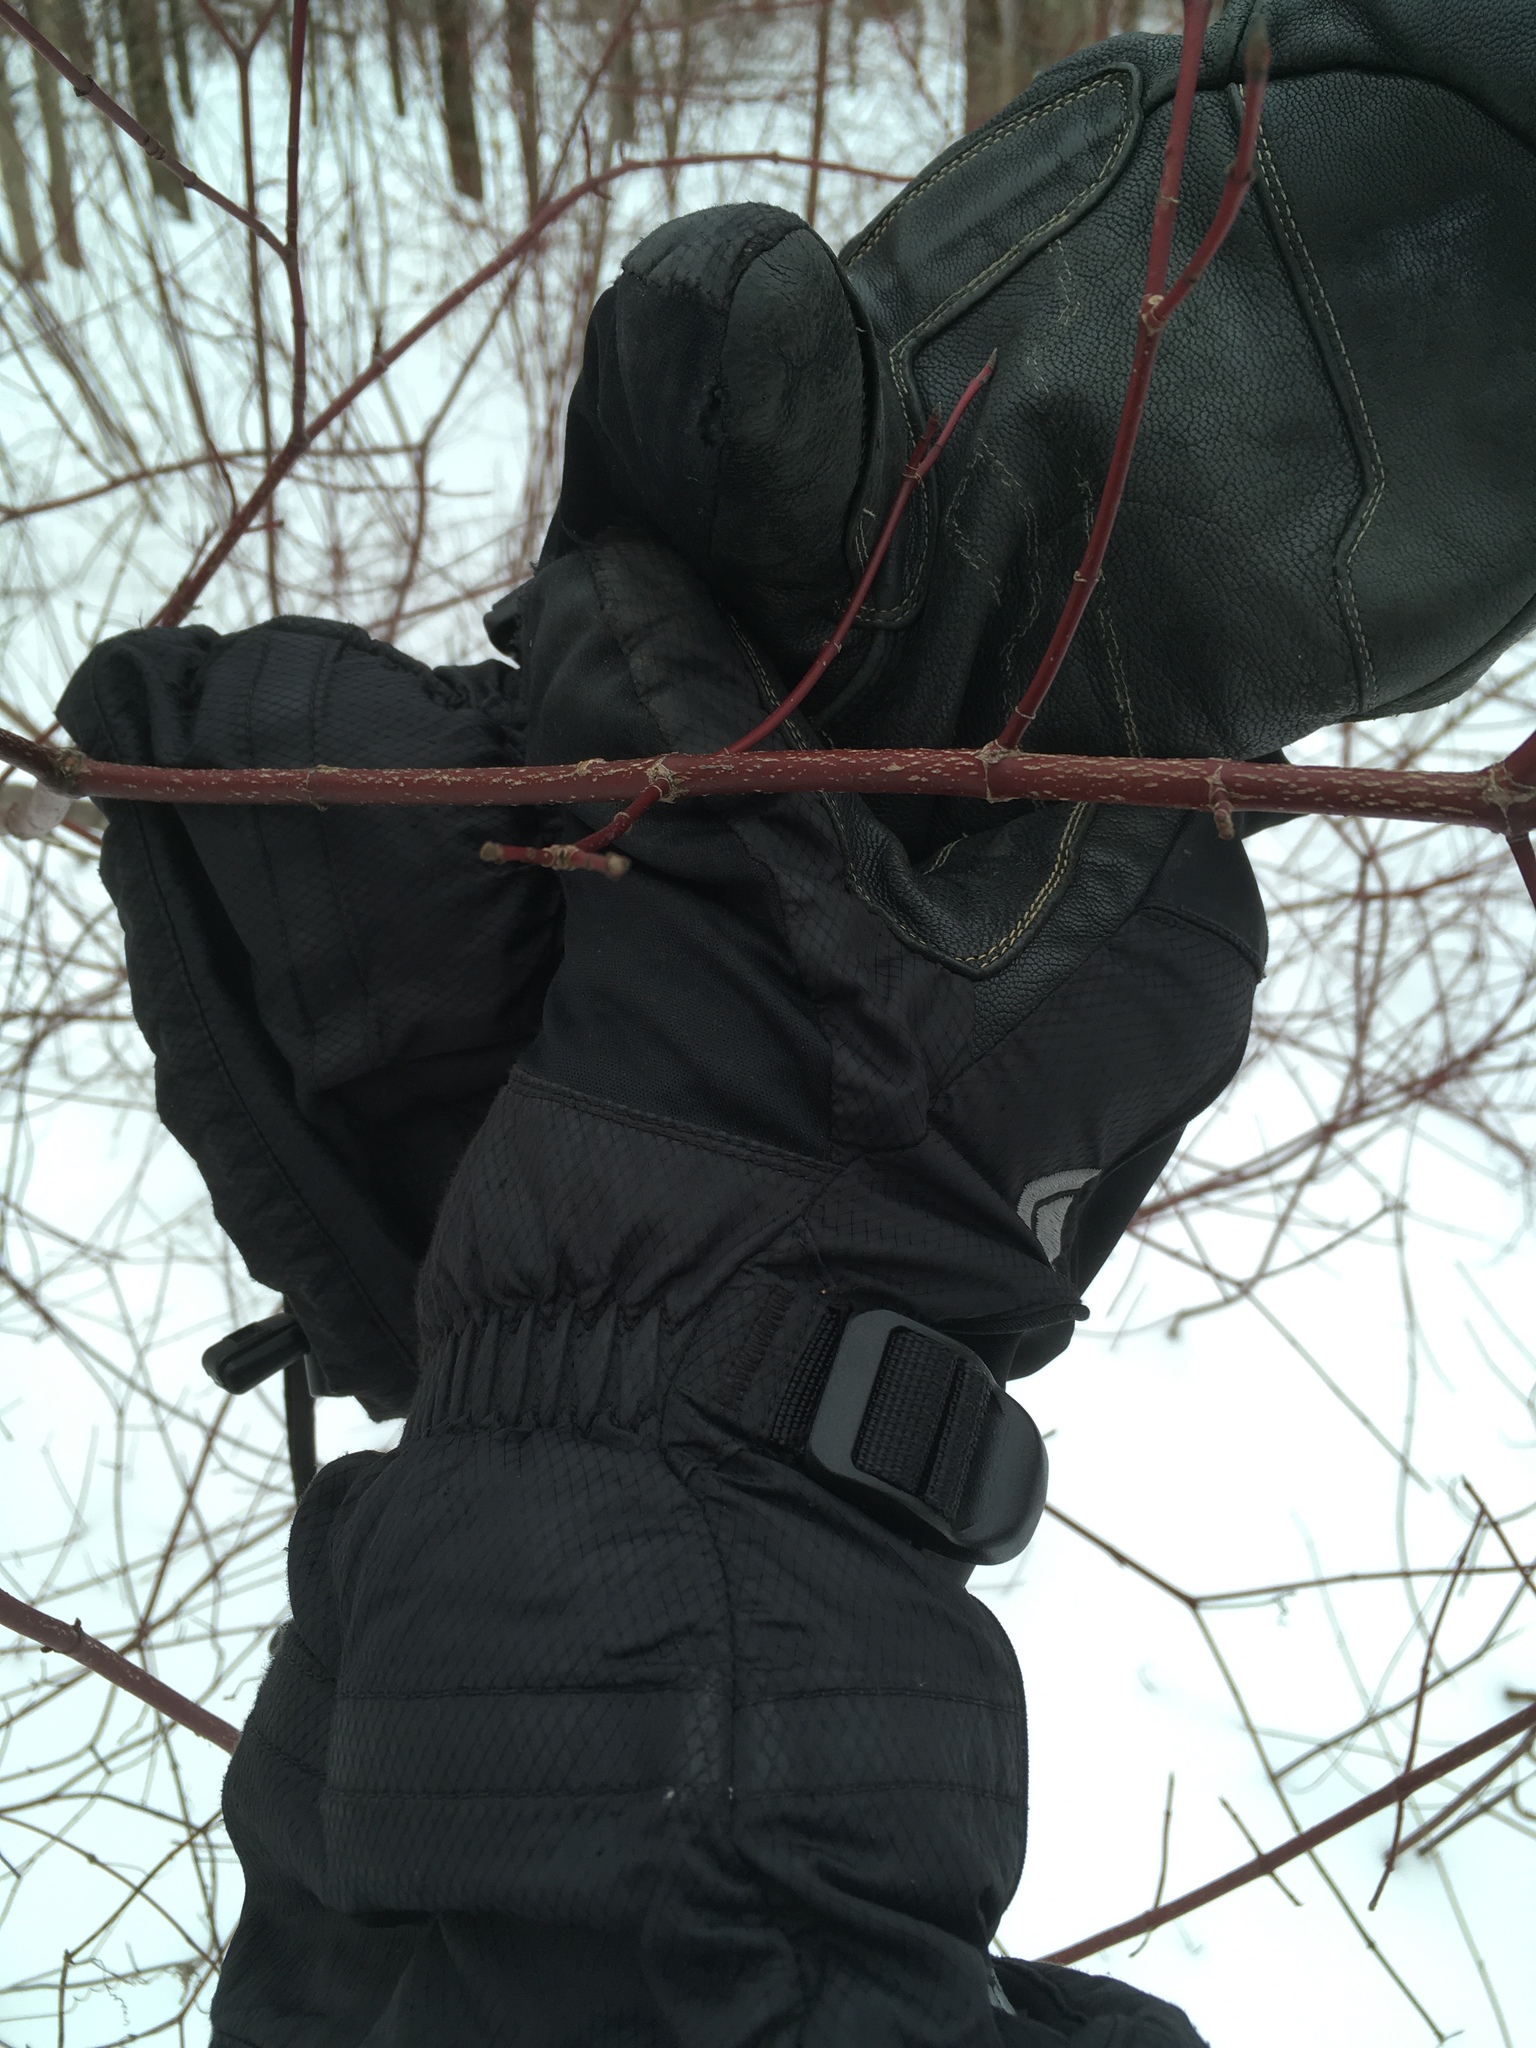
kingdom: Plantae
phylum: Tracheophyta
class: Magnoliopsida
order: Cornales
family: Cornaceae
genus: Cornus
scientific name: Cornus sericea
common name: Red-osier dogwood
